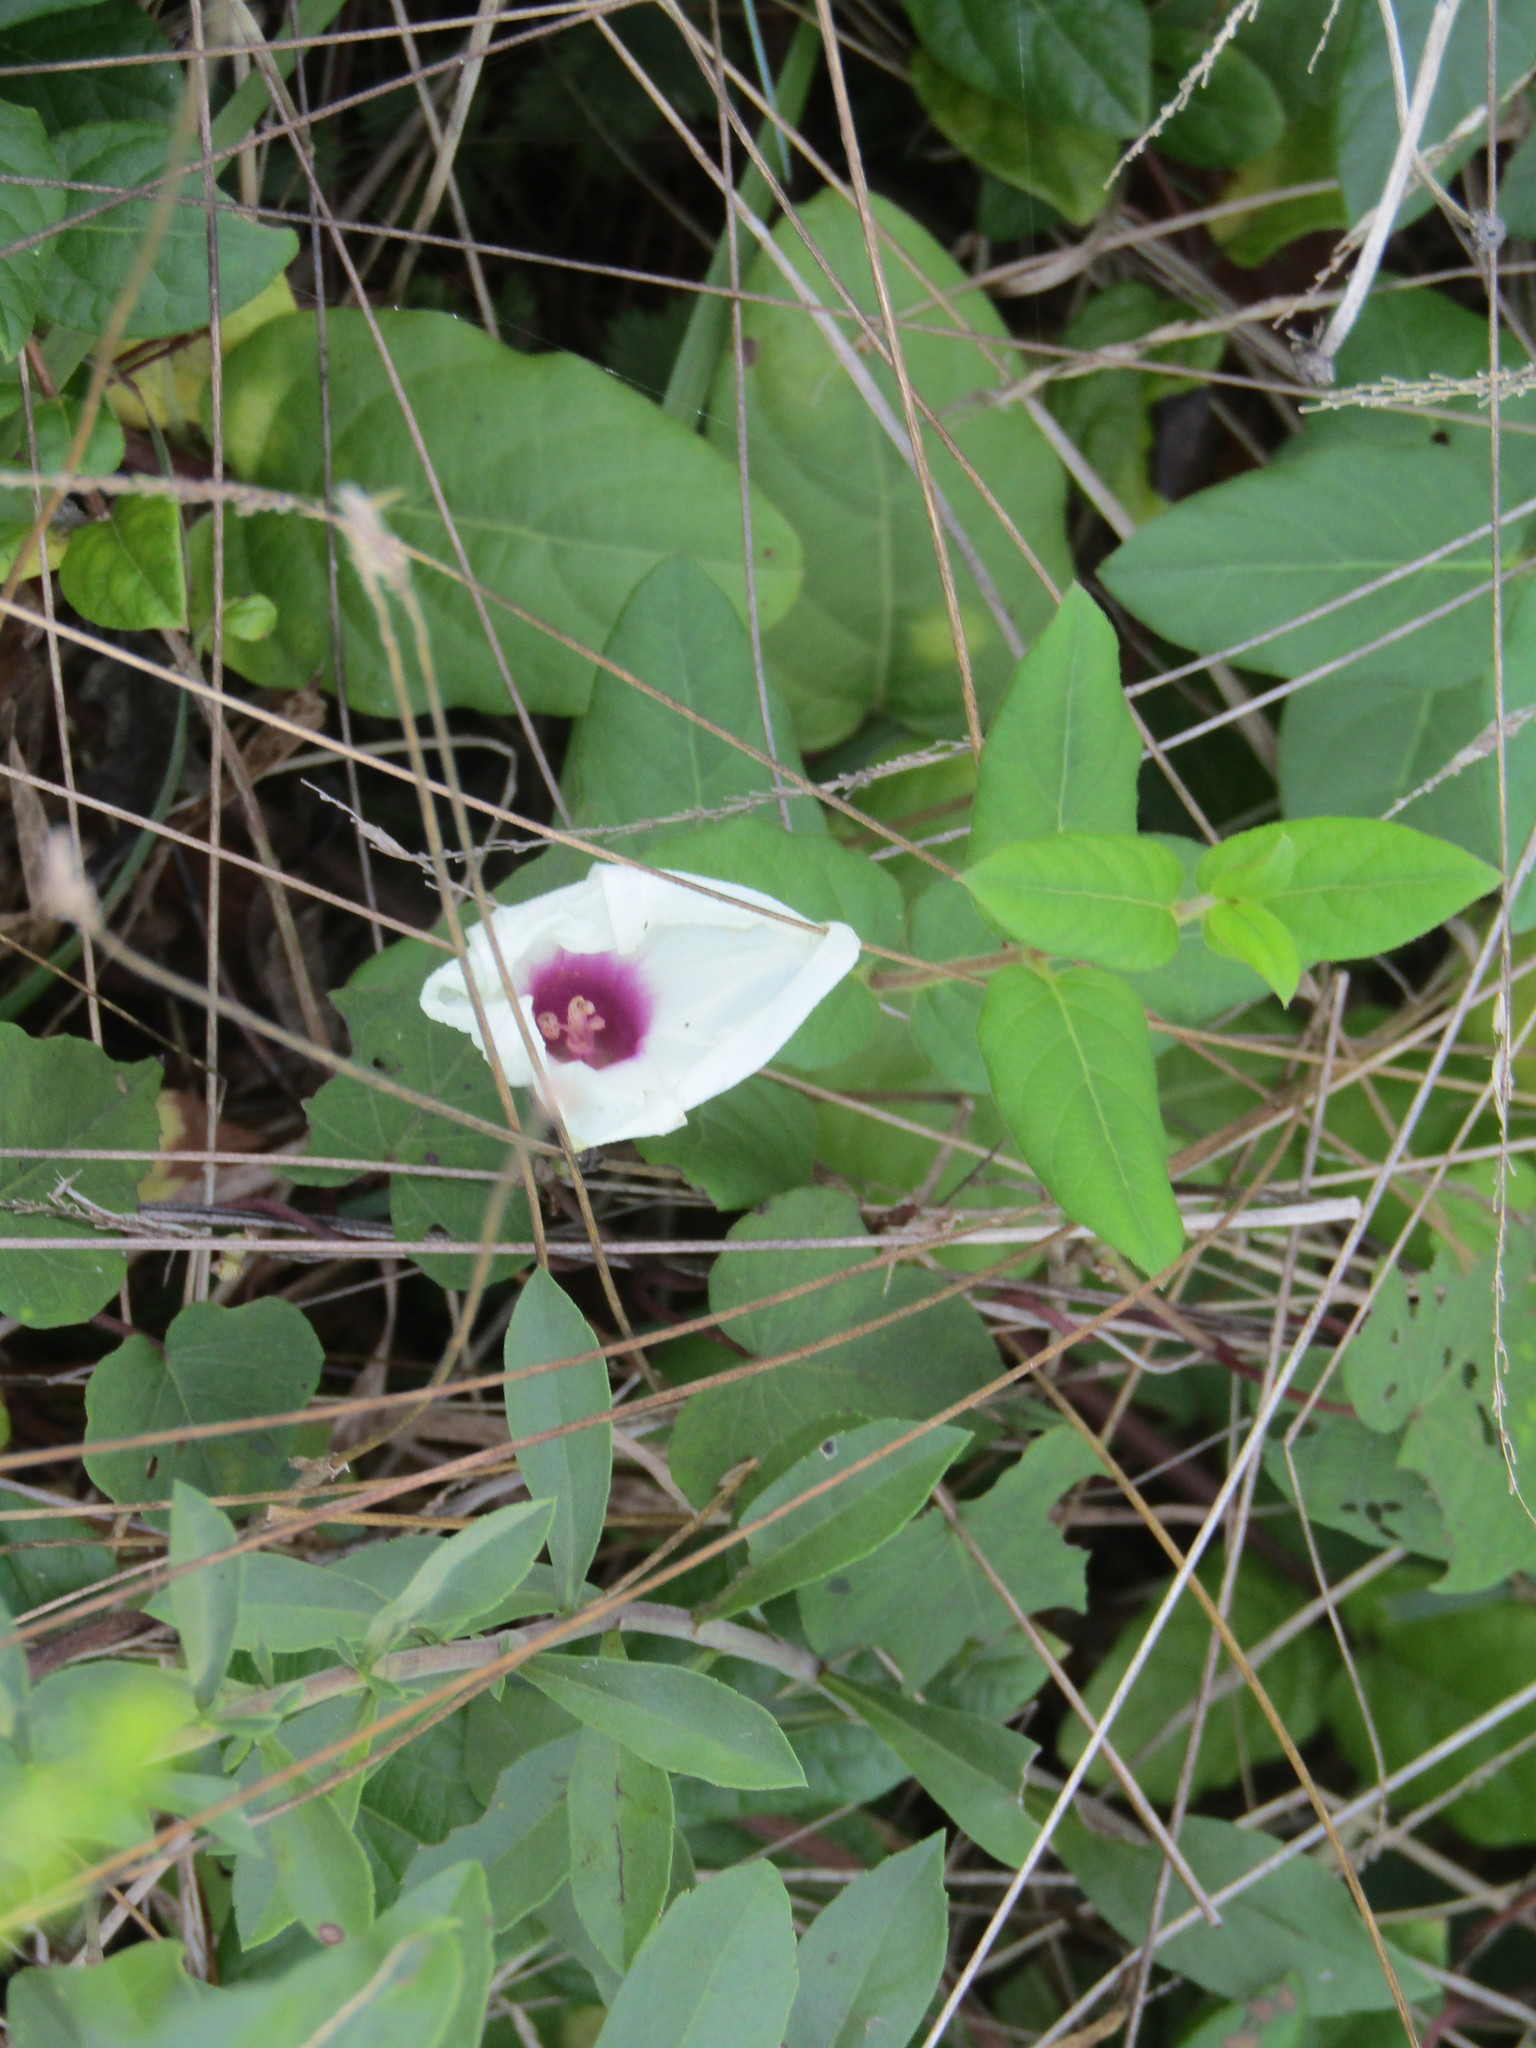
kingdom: Plantae
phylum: Tracheophyta
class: Magnoliopsida
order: Solanales
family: Convolvulaceae
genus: Ipomoea
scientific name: Ipomoea pandurata
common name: Man-of-the-earth
